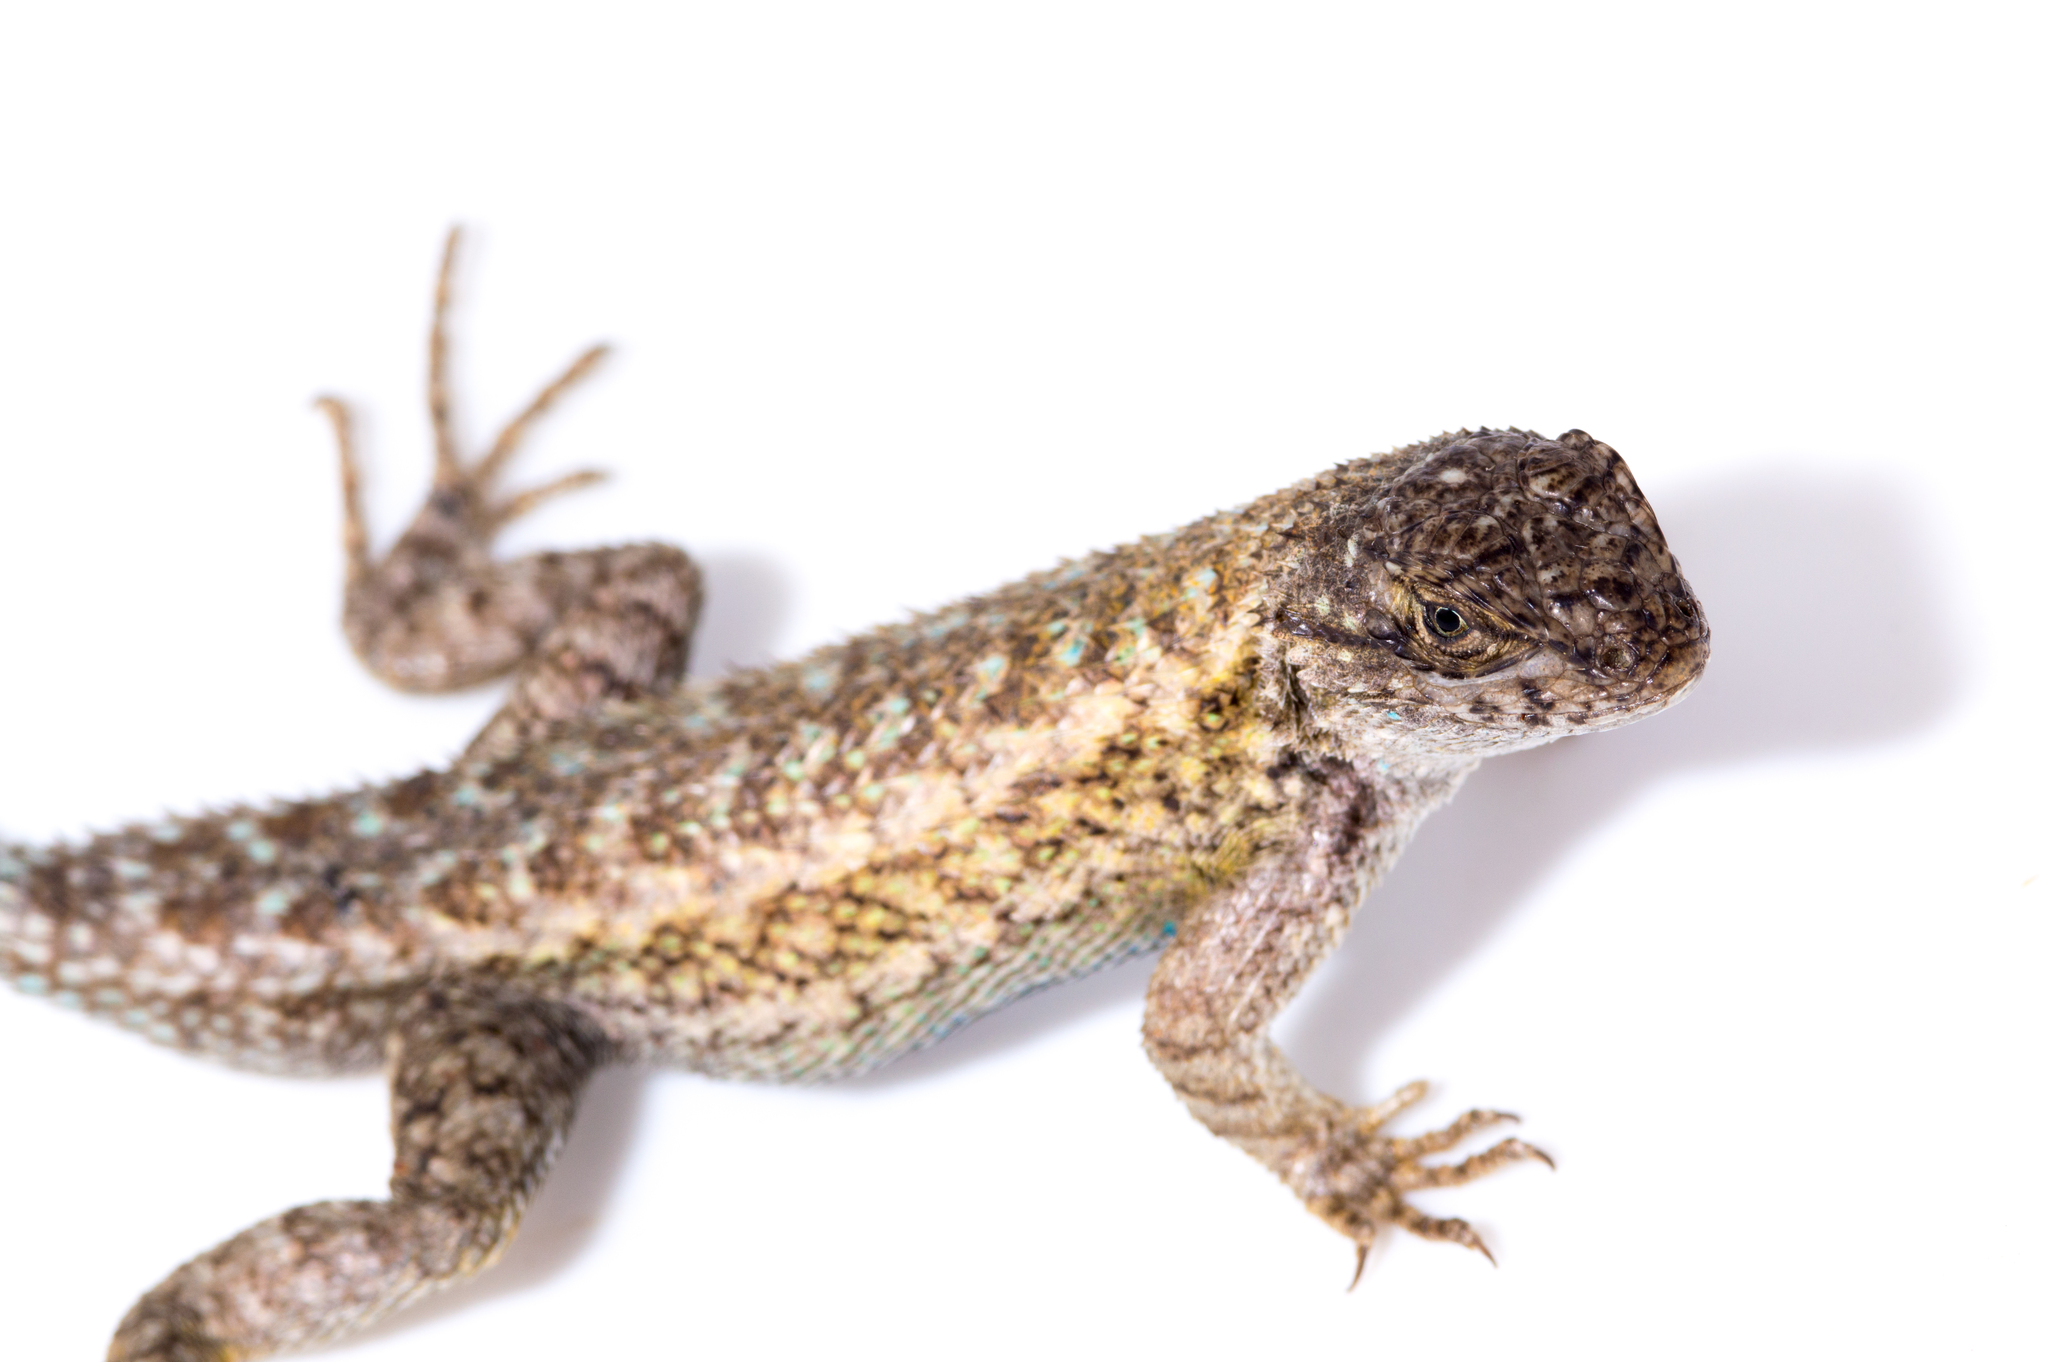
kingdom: Animalia
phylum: Chordata
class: Squamata
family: Phrynosomatidae
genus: Sceloporus
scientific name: Sceloporus occidentalis
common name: Western fence lizard
